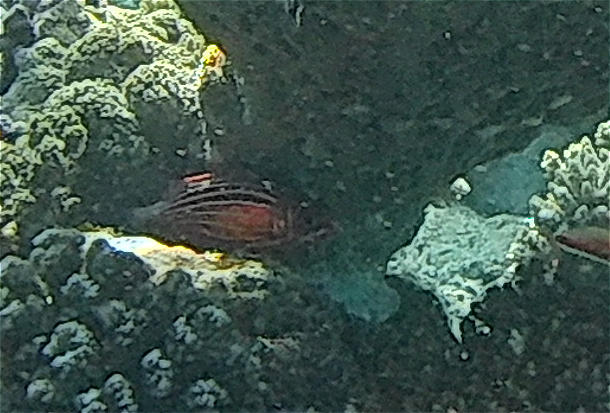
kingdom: Animalia
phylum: Chordata
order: Beryciformes
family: Holocentridae
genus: Sargocentron
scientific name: Sargocentron diadema
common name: Crown squirrelfish
